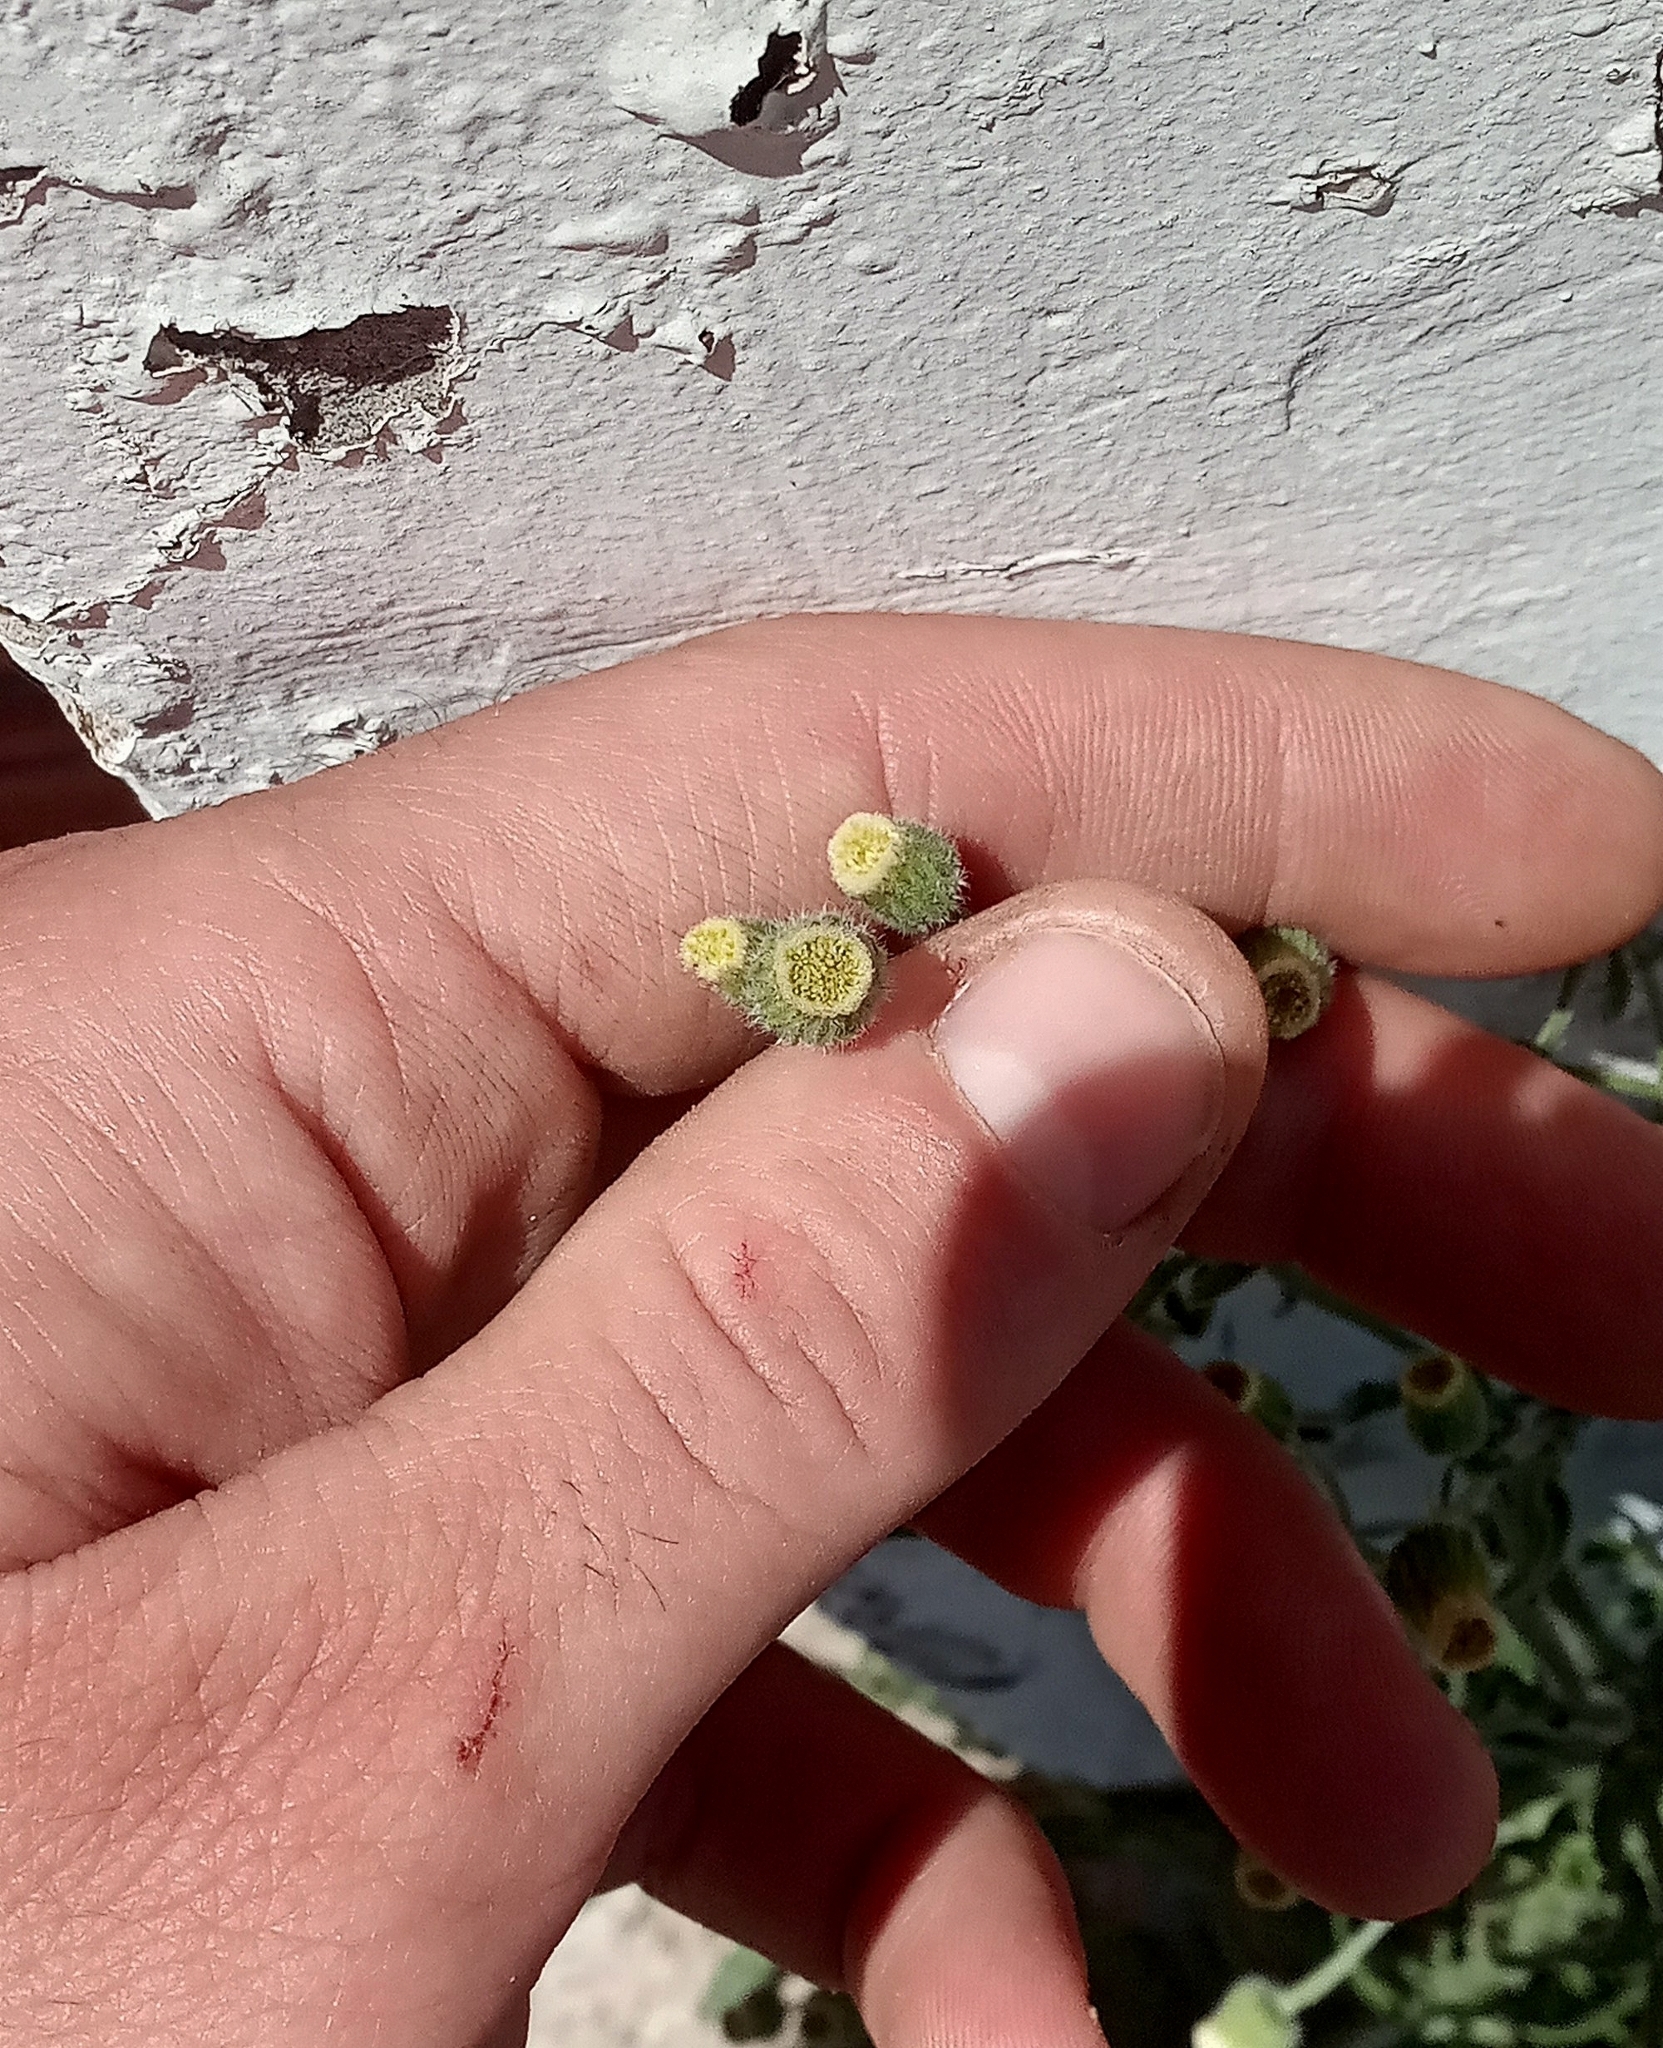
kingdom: Plantae
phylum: Tracheophyta
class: Magnoliopsida
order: Asterales
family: Asteraceae
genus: Erigeron
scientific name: Erigeron bonariensis
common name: Argentine fleabane
